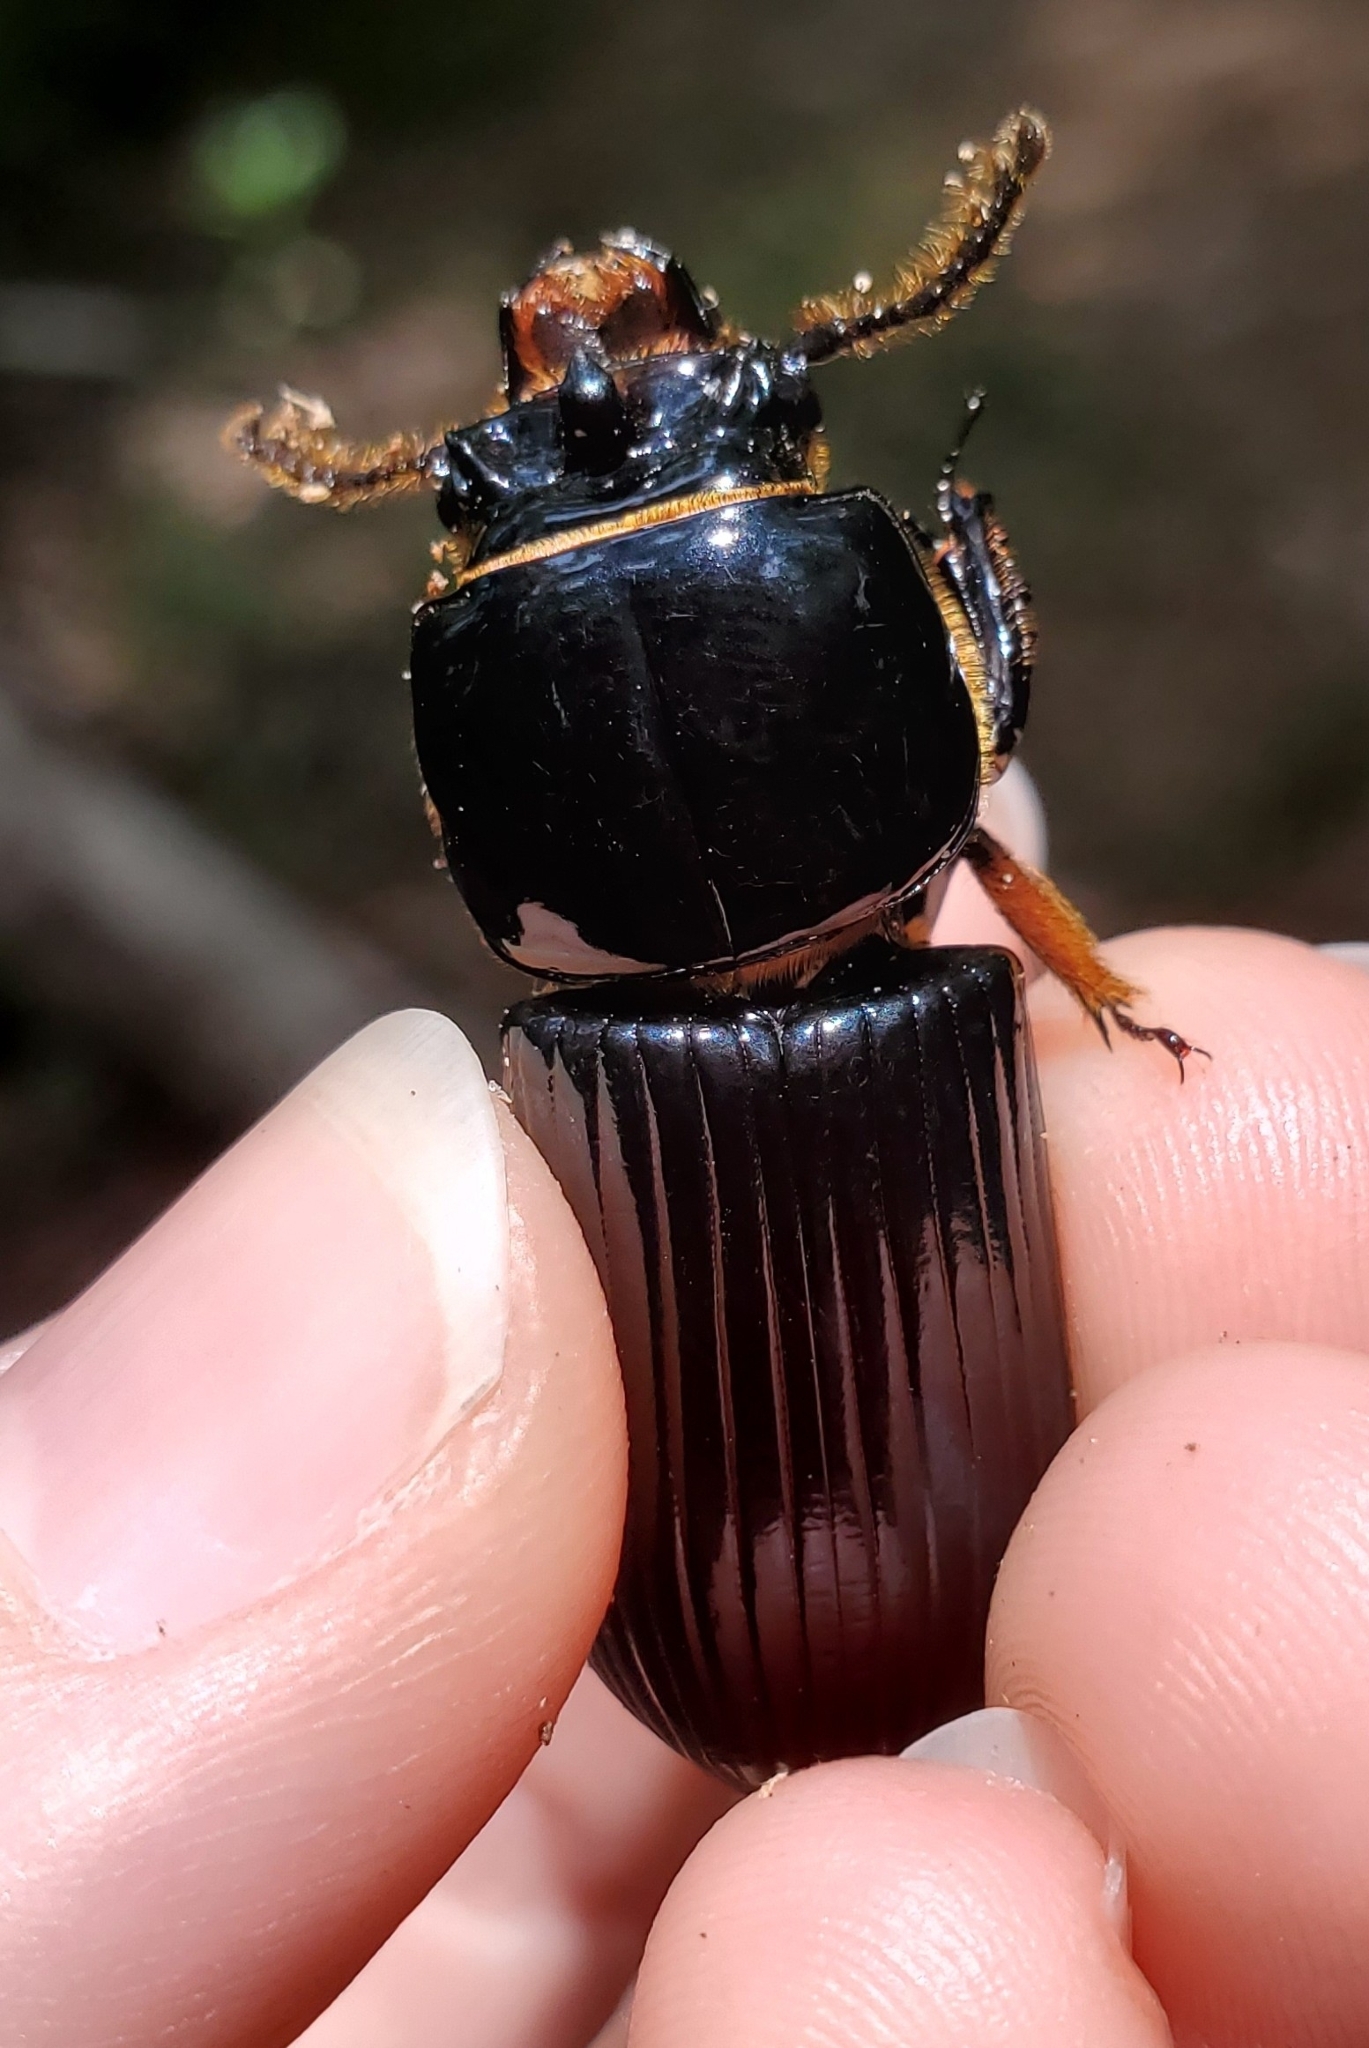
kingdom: Animalia
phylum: Arthropoda
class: Insecta
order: Coleoptera
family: Passalidae
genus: Odontotaenius
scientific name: Odontotaenius disjunctus
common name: Patent leather beetle
